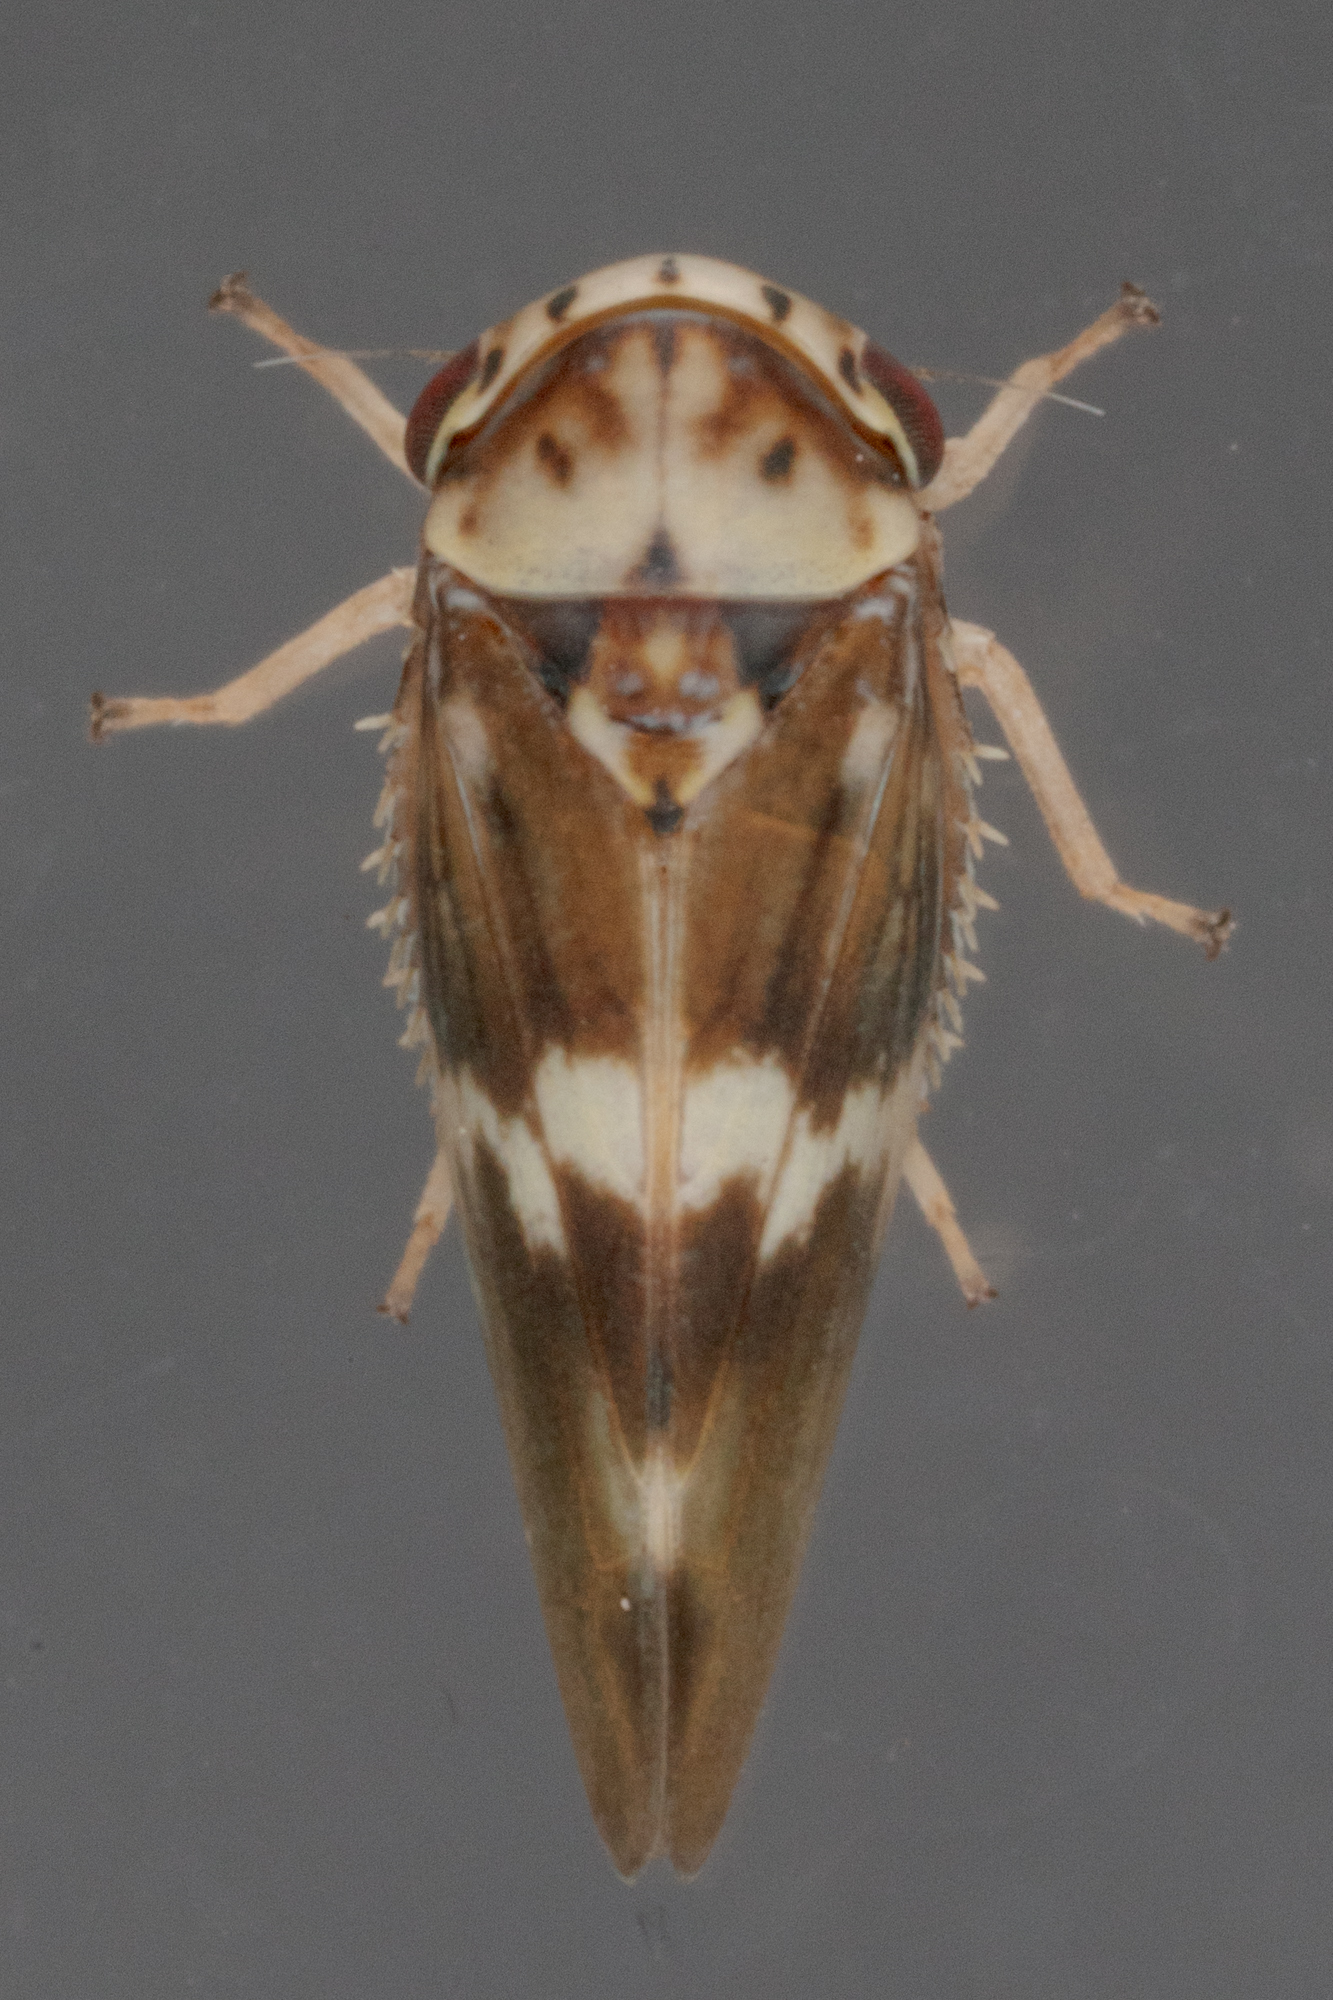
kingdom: Animalia
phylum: Arthropoda
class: Insecta
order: Hemiptera
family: Cicadellidae
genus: Agalliopsis
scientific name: Agalliopsis cervina
